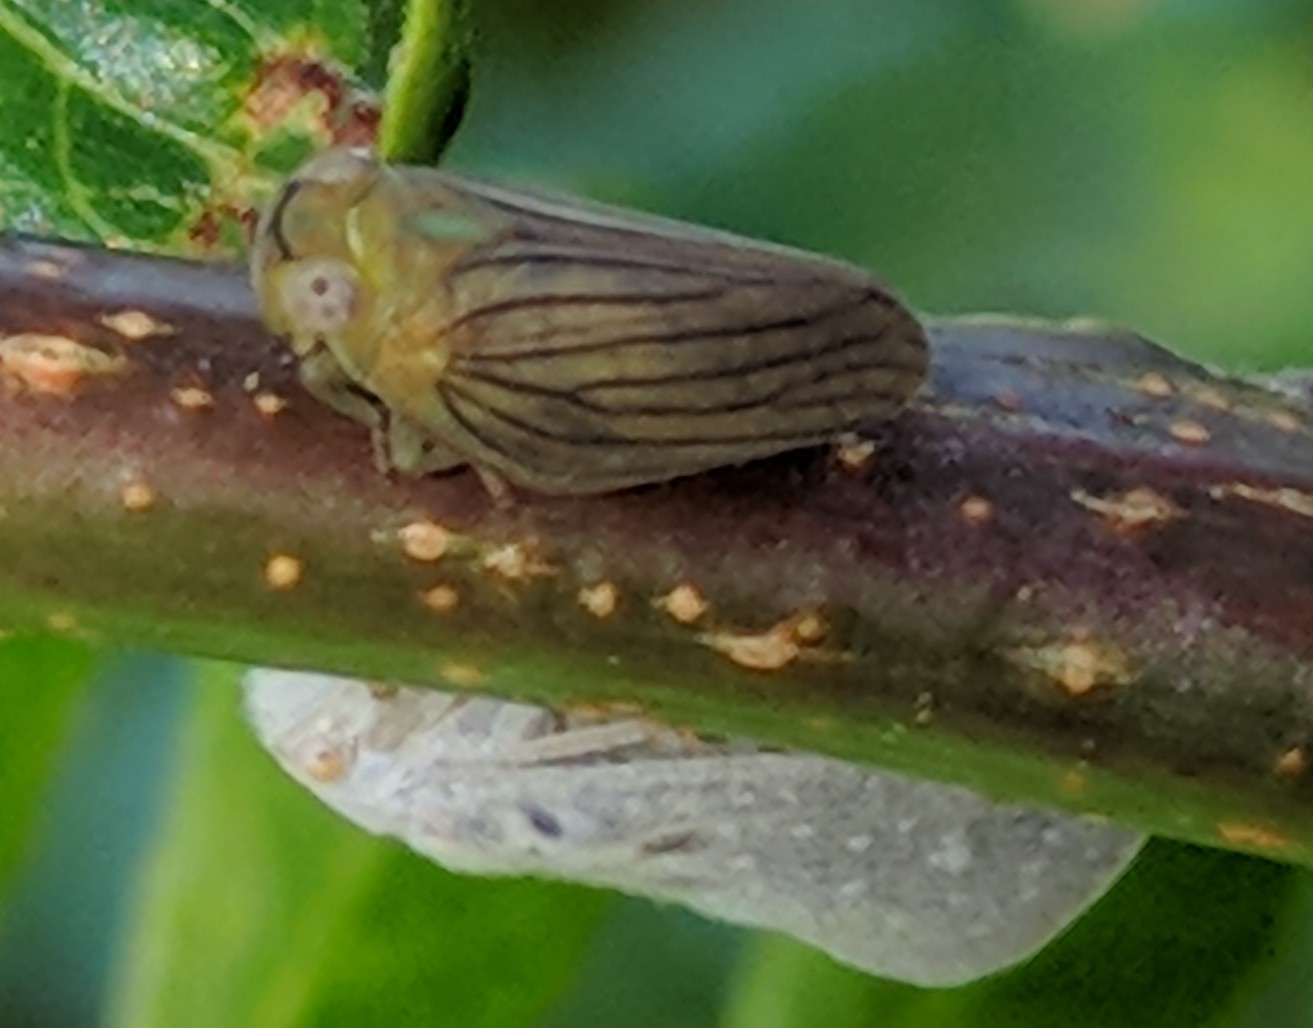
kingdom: Animalia
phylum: Arthropoda
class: Insecta
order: Hemiptera
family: Issidae
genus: Aplos
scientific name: Aplos simplex
